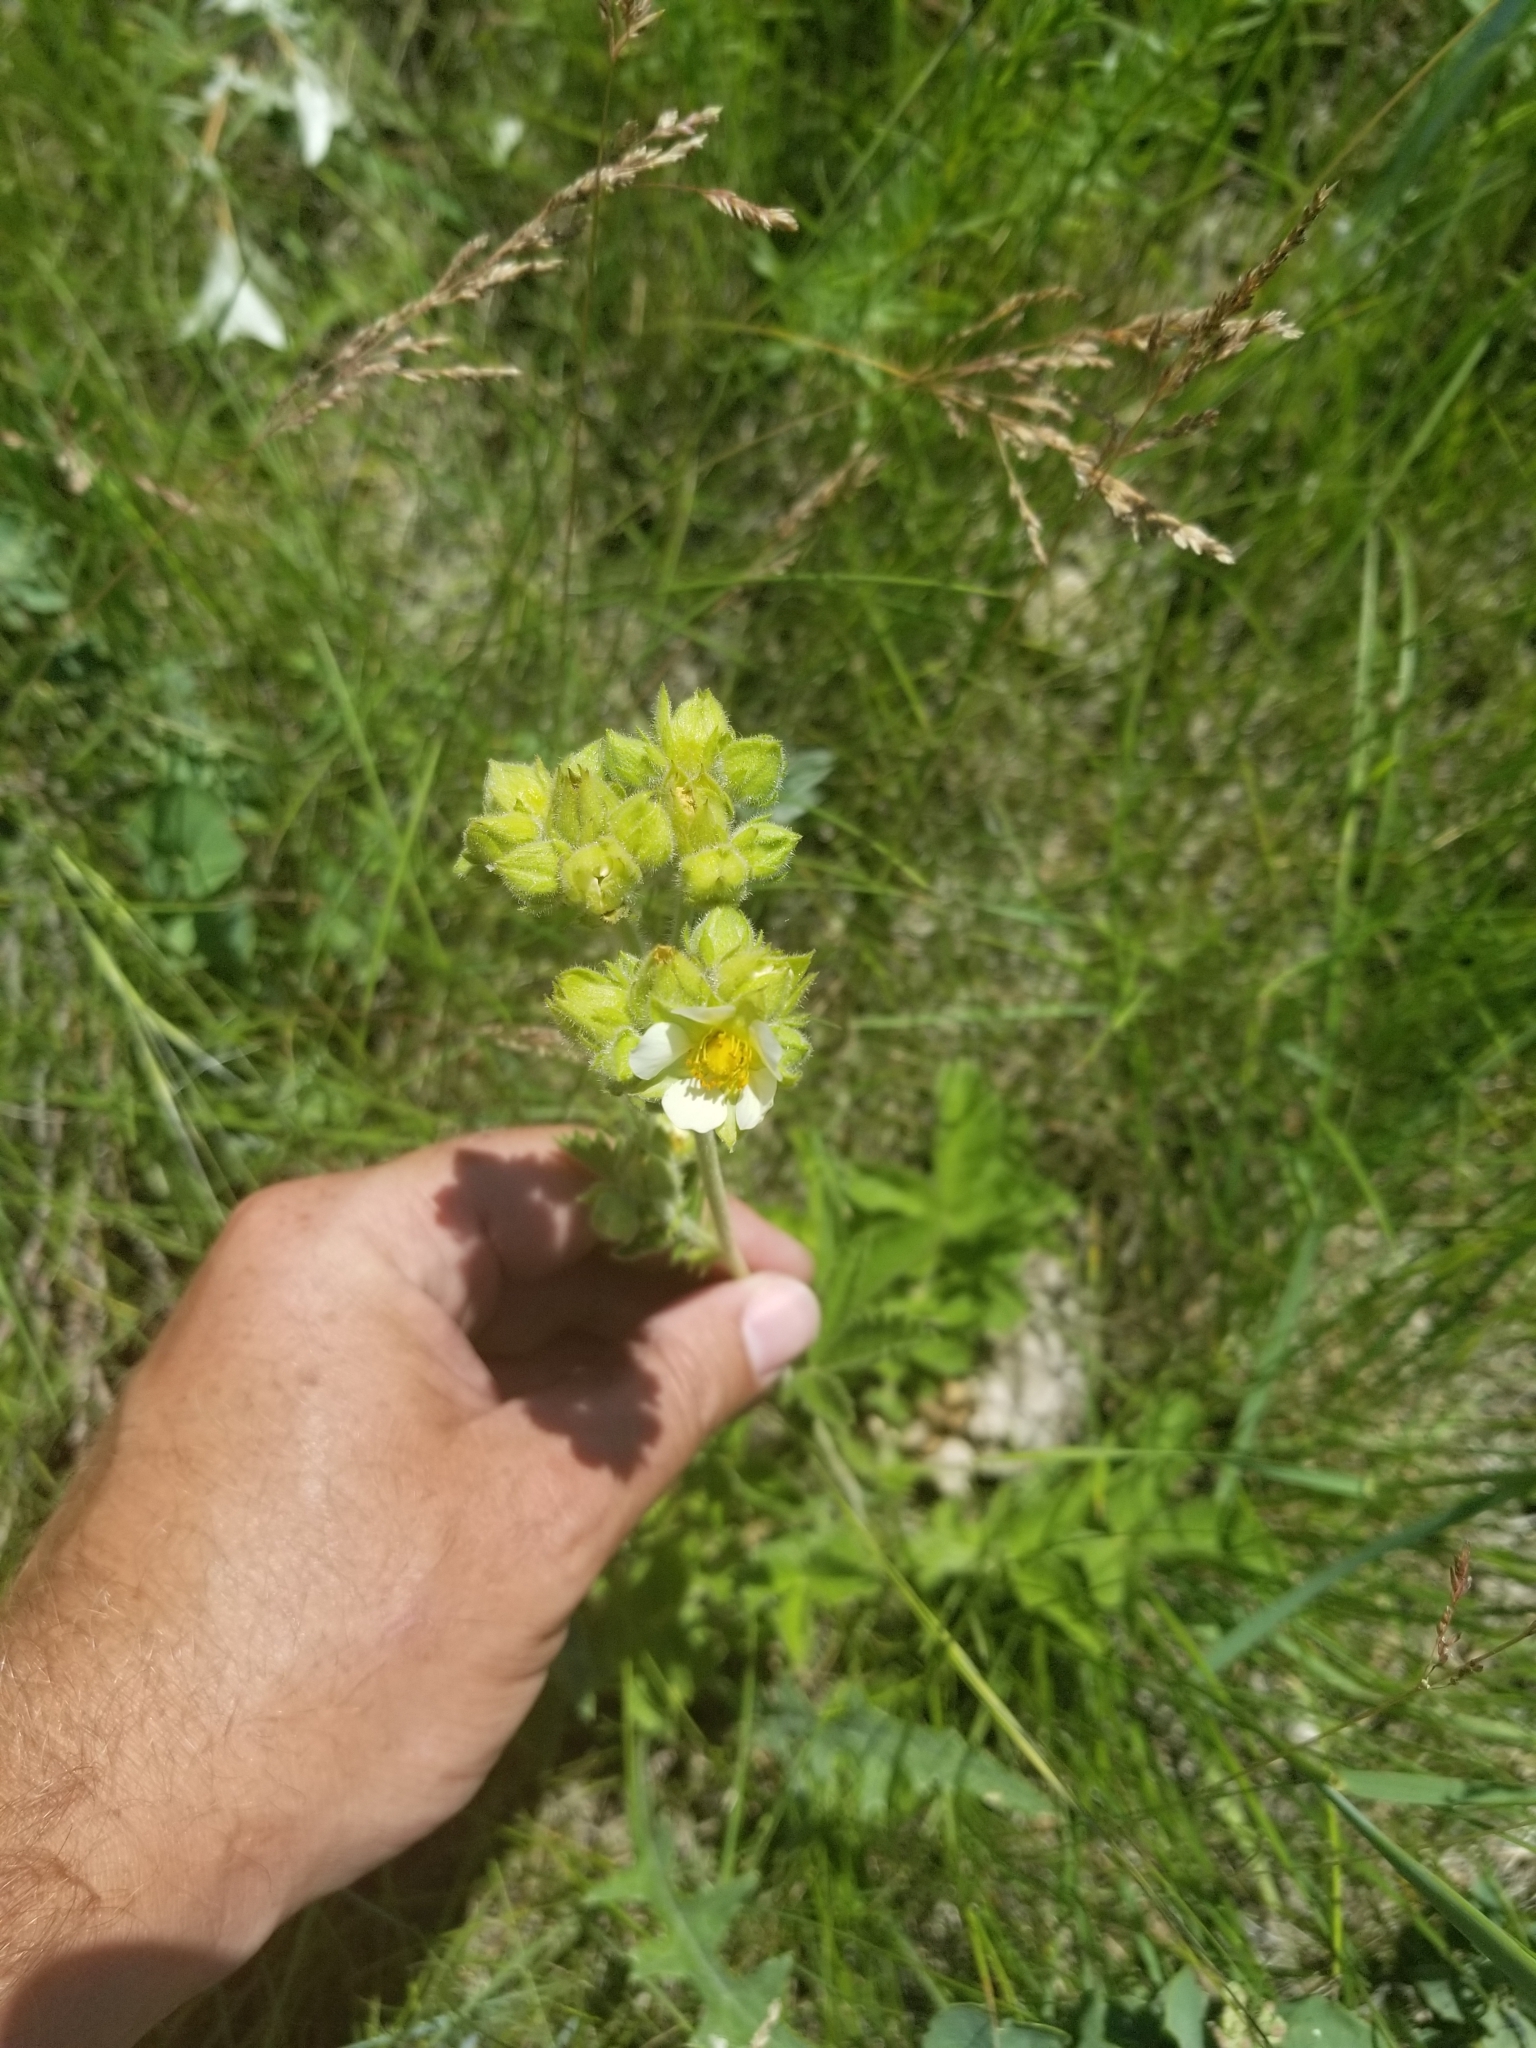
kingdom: Plantae
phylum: Tracheophyta
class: Magnoliopsida
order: Rosales
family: Rosaceae
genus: Drymocallis
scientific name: Drymocallis arguta
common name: Tall cinquefoil
